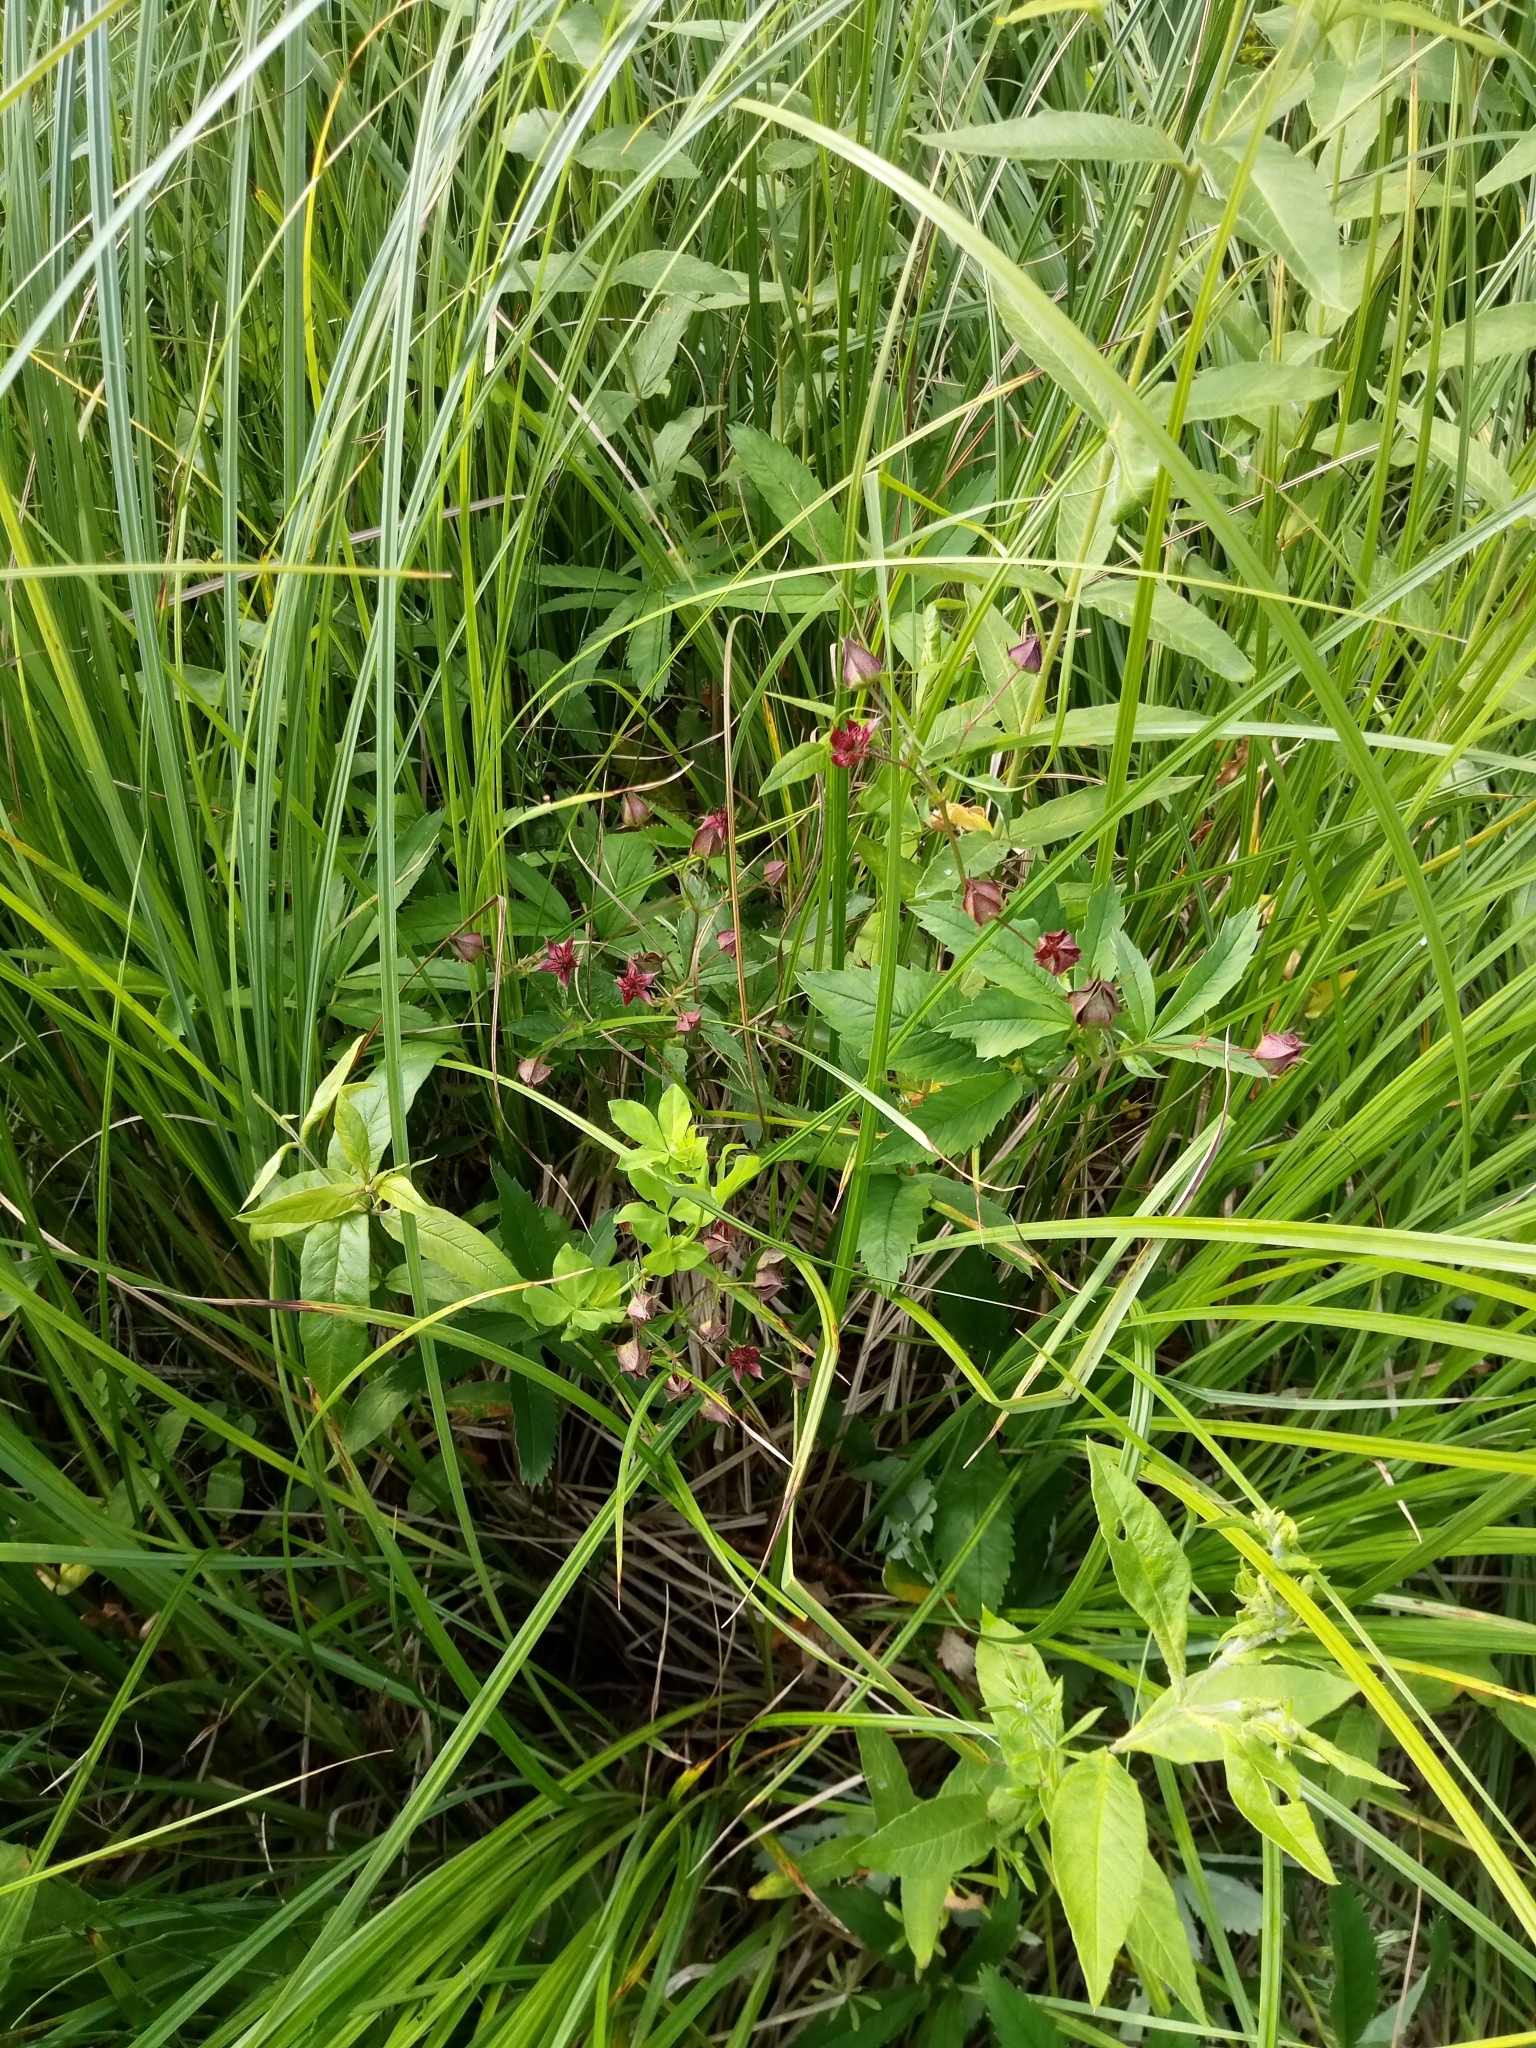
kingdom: Plantae
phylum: Tracheophyta
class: Magnoliopsida
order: Rosales
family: Rosaceae
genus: Comarum
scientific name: Comarum palustre
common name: Marsh cinquefoil
